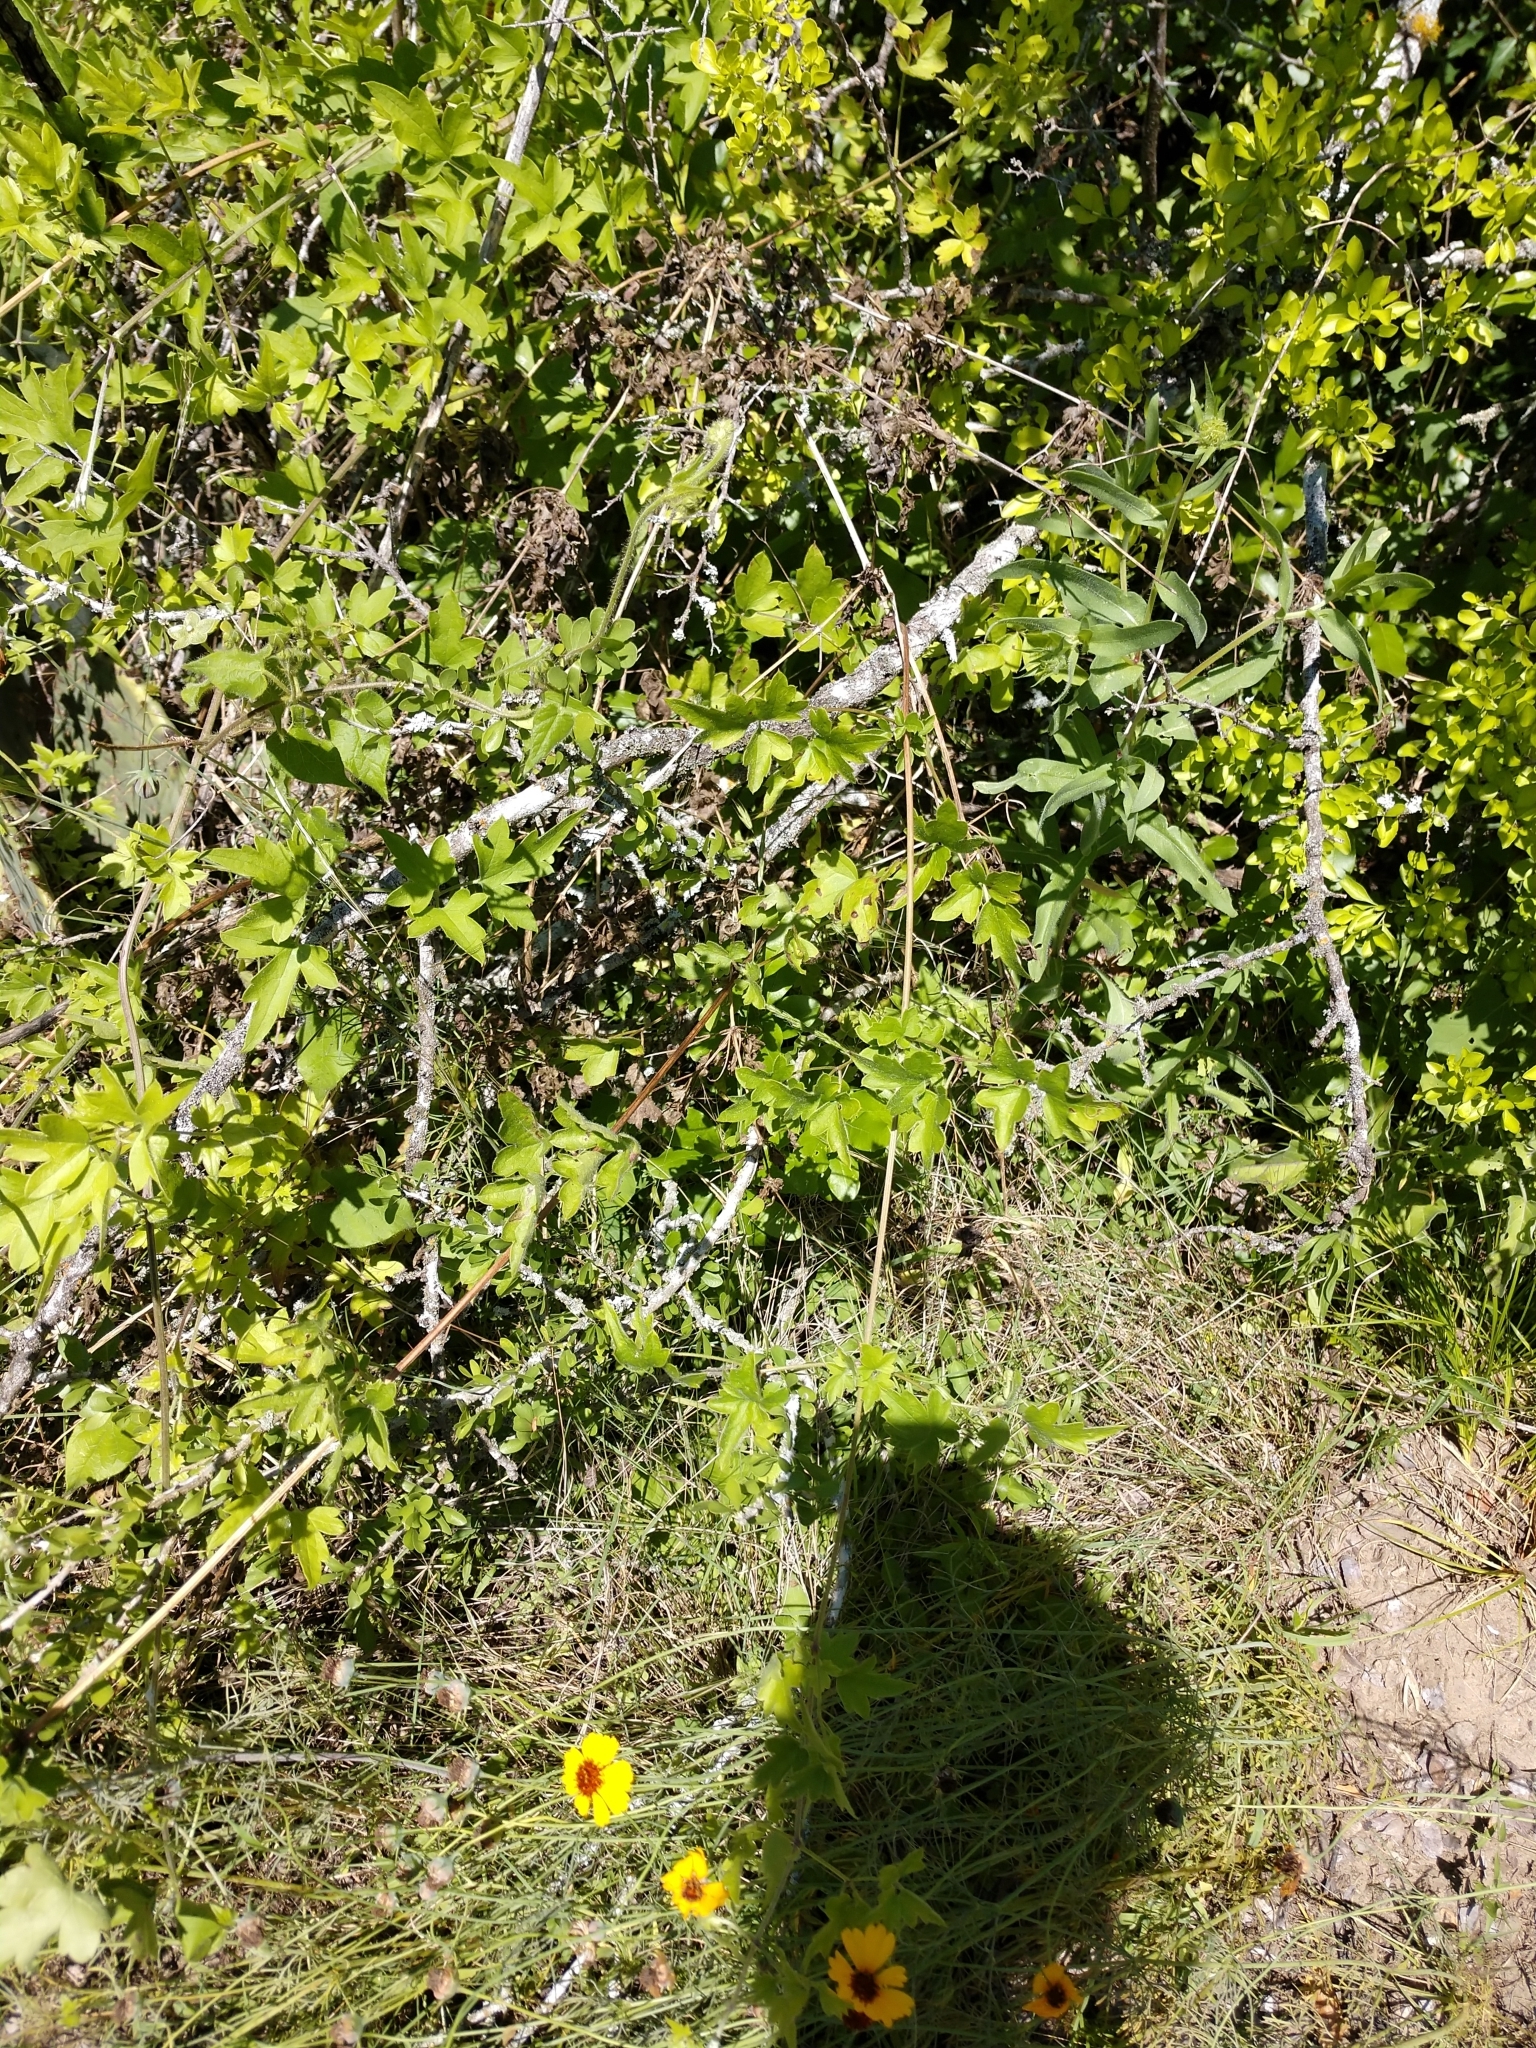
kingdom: Plantae
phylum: Tracheophyta
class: Magnoliopsida
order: Ranunculales
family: Ranunculaceae
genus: Clematis
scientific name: Clematis drummondii
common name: Texas virgin's bower
